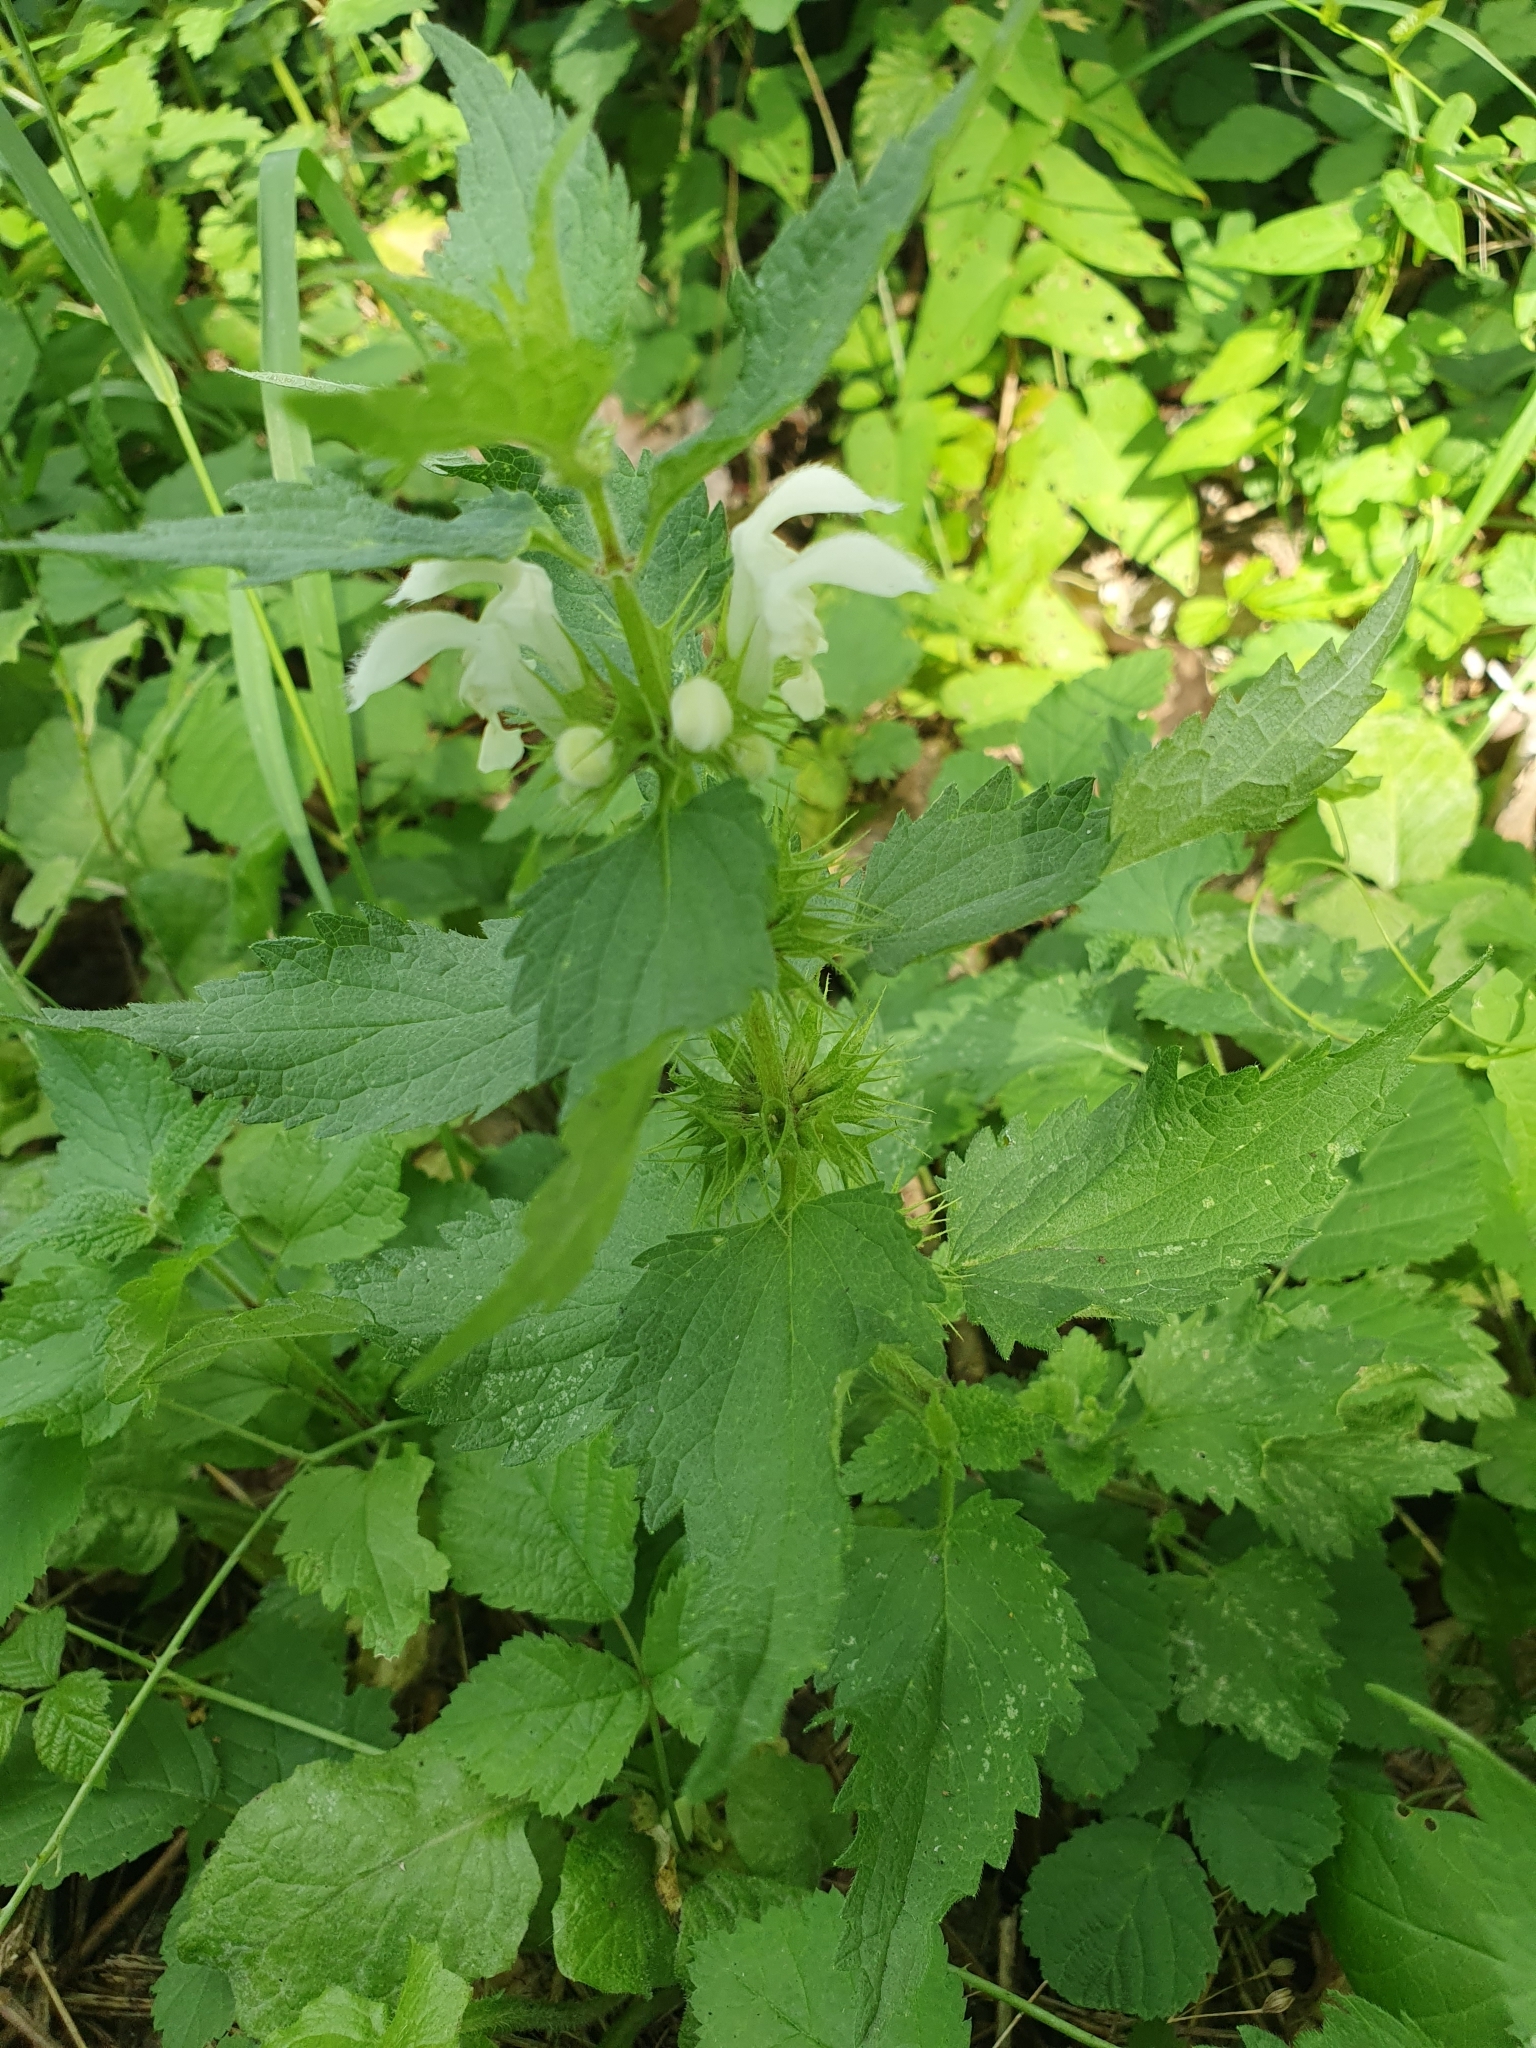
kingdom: Plantae
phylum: Tracheophyta
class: Magnoliopsida
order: Lamiales
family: Lamiaceae
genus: Lamium
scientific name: Lamium album
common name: White dead-nettle
